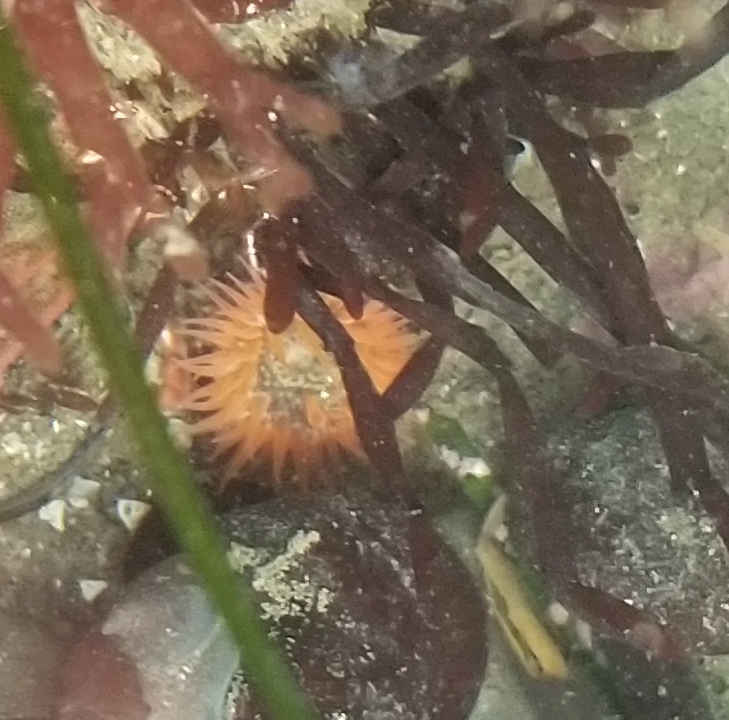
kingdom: Animalia
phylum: Cnidaria
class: Anthozoa
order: Actiniaria
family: Actiniidae
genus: Anthopleura
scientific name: Anthopleura artemisia
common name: Buried sea anemone
